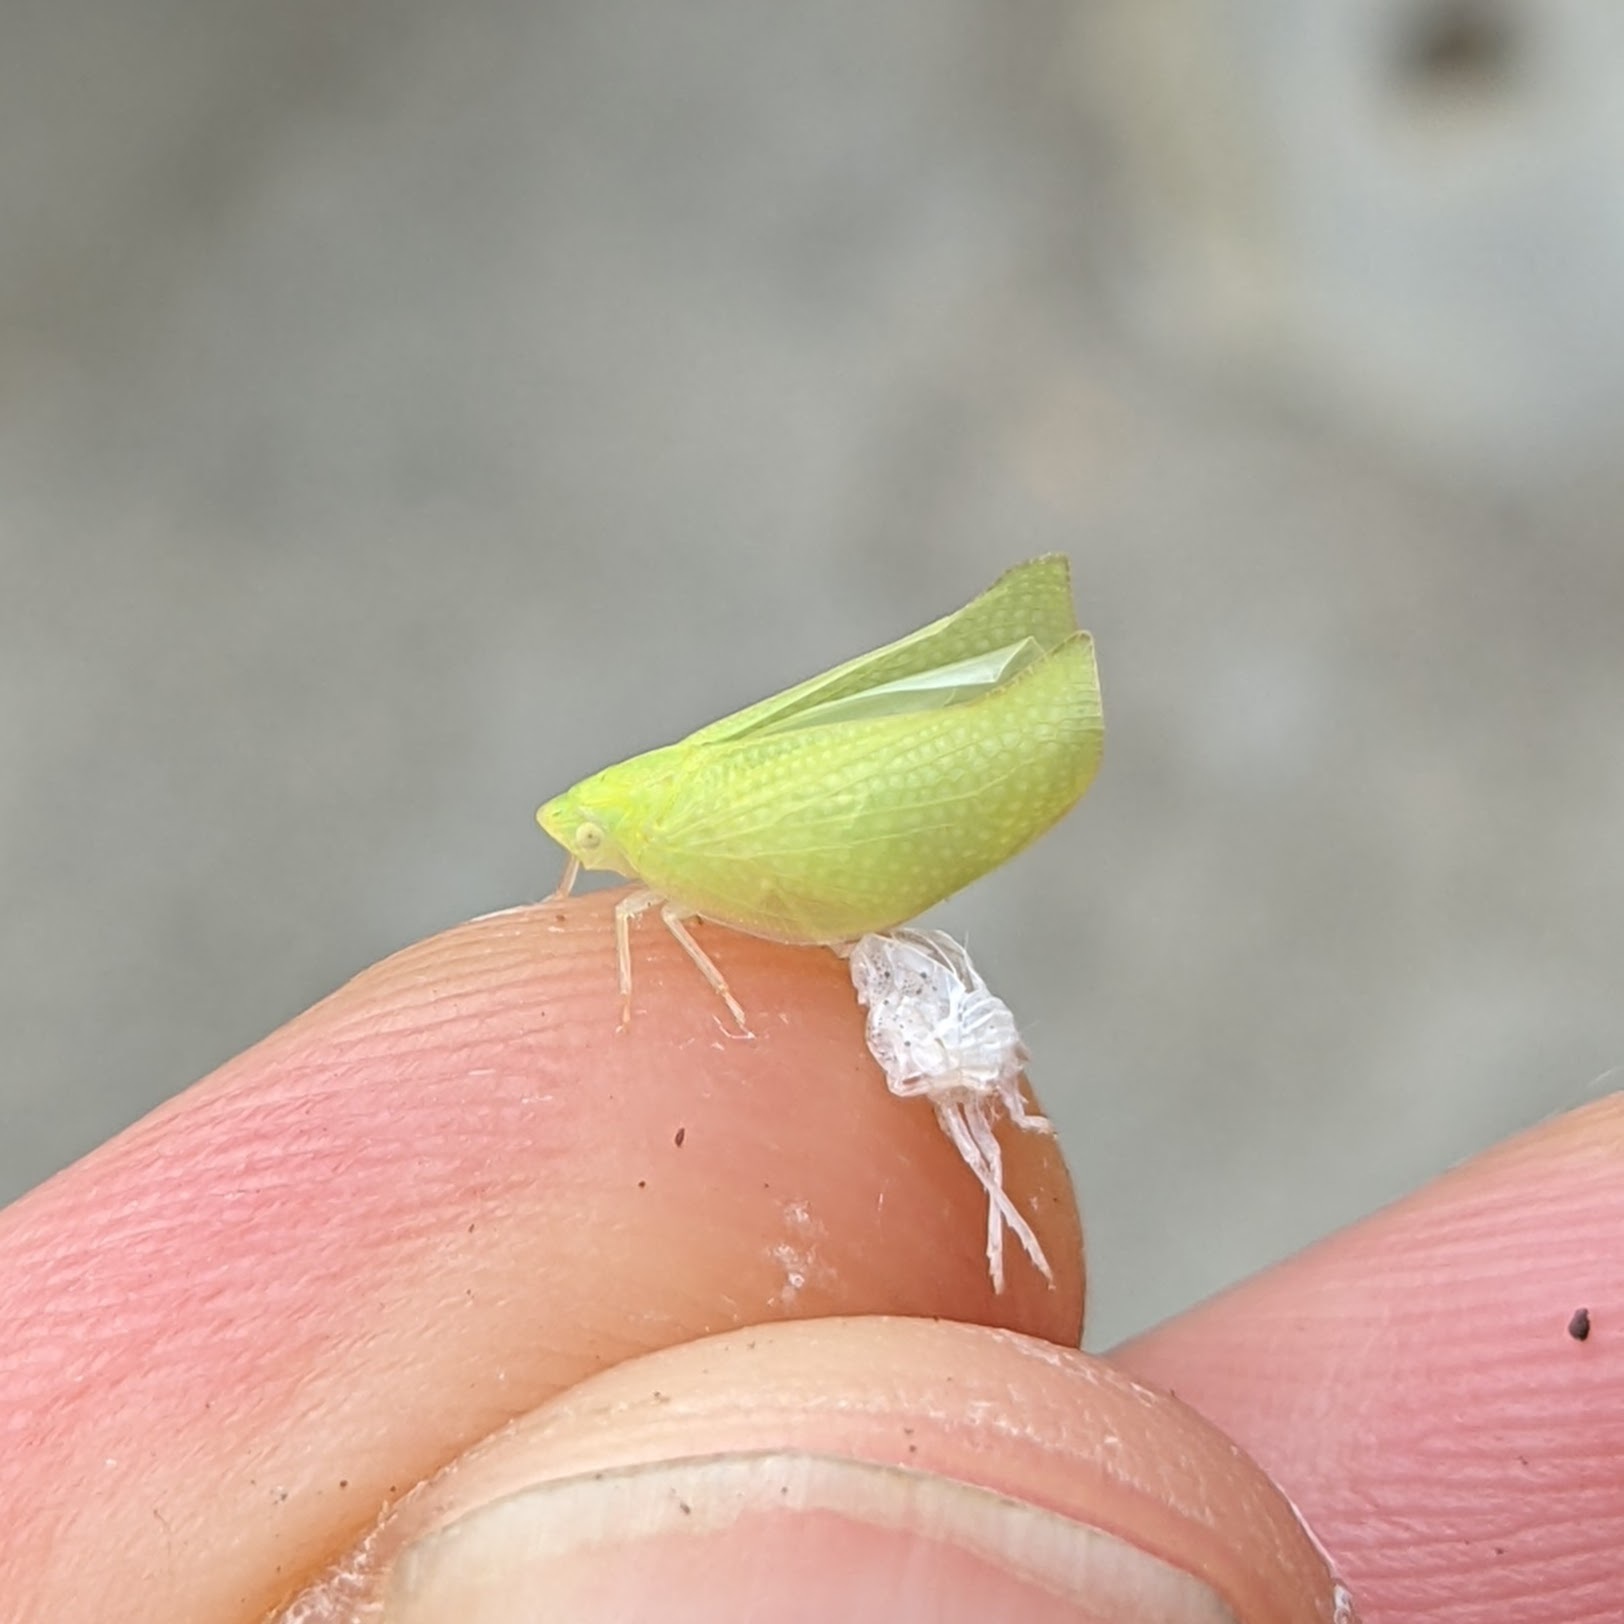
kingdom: Animalia
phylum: Arthropoda
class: Insecta
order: Hemiptera
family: Flatidae
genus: Siphanta
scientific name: Siphanta acuta
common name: Torpedo bug
